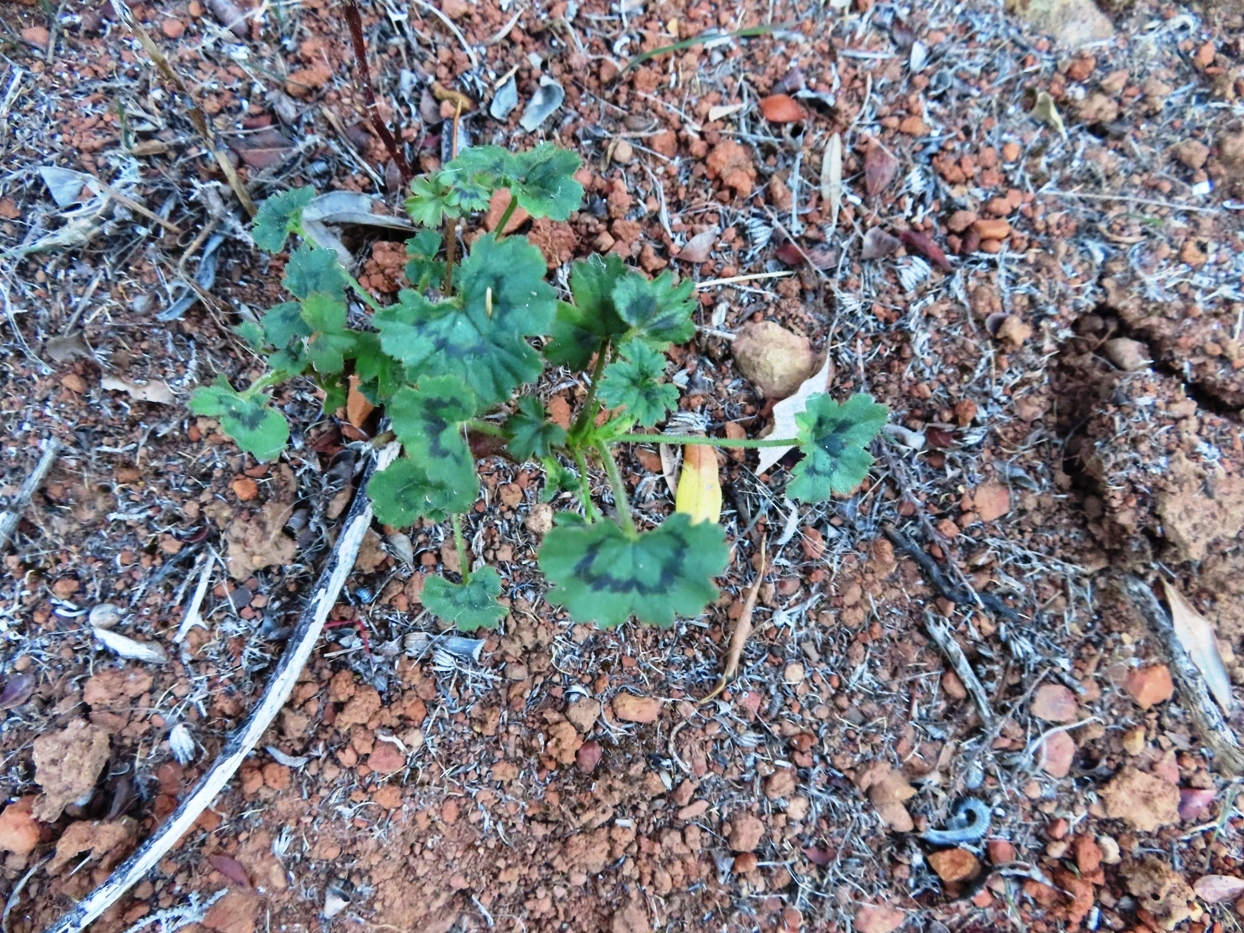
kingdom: Plantae
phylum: Tracheophyta
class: Magnoliopsida
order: Geraniales
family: Geraniaceae
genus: Pelargonium
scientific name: Pelargonium elongatum
